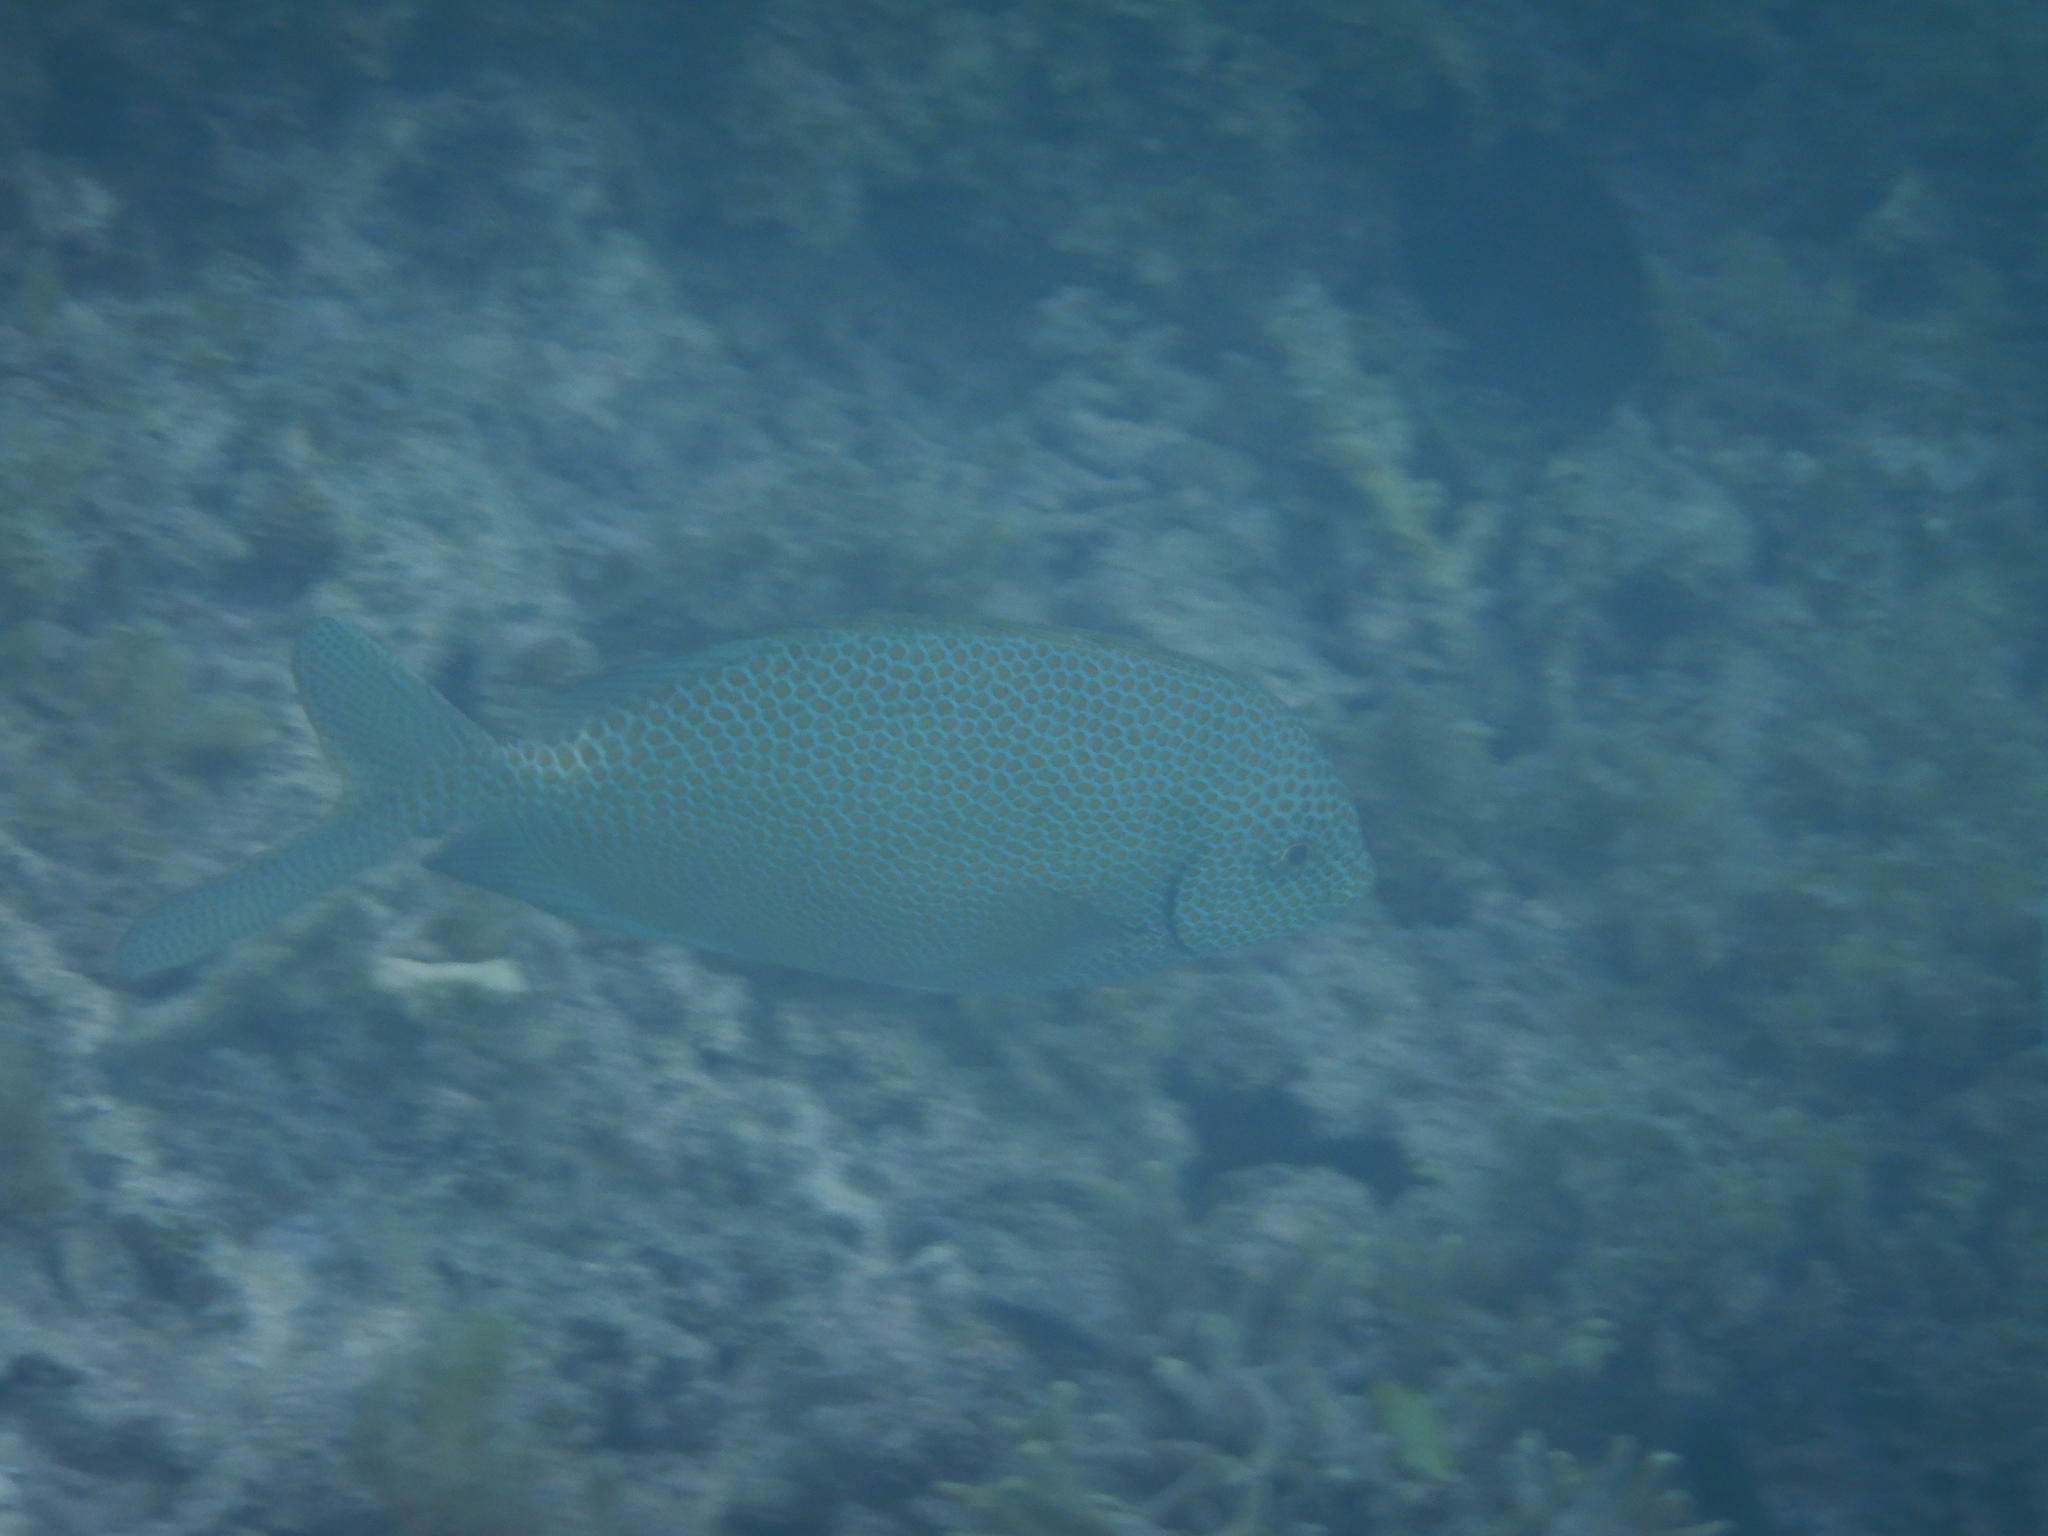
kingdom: Animalia
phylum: Chordata
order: Perciformes
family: Siganidae
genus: Siganus
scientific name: Siganus punctatus
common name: Gold-spotted rabbitfish
